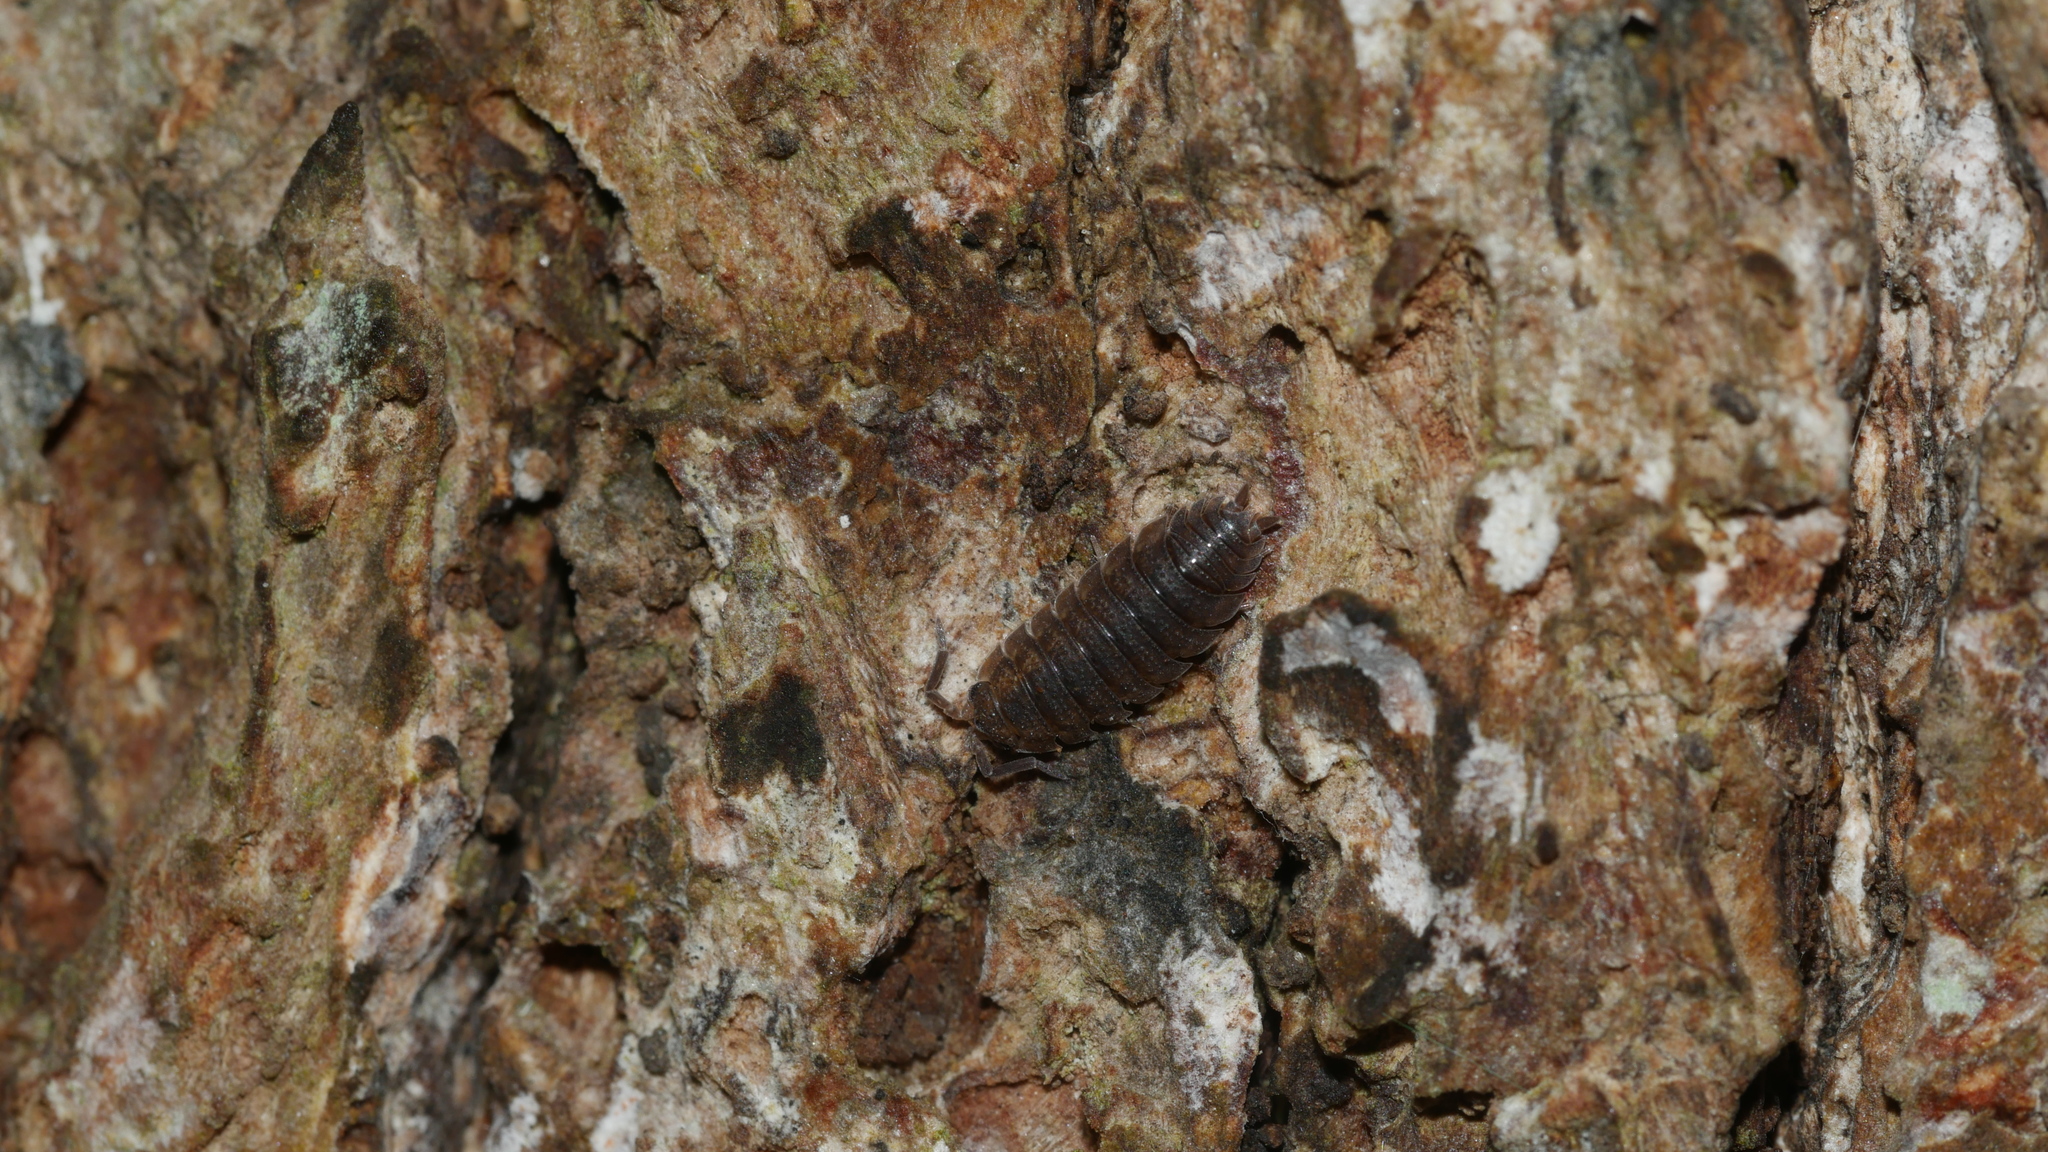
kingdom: Animalia
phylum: Arthropoda
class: Malacostraca
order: Isopoda
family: Porcellionidae
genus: Porcellio
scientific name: Porcellio scaber
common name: Common rough woodlouse
